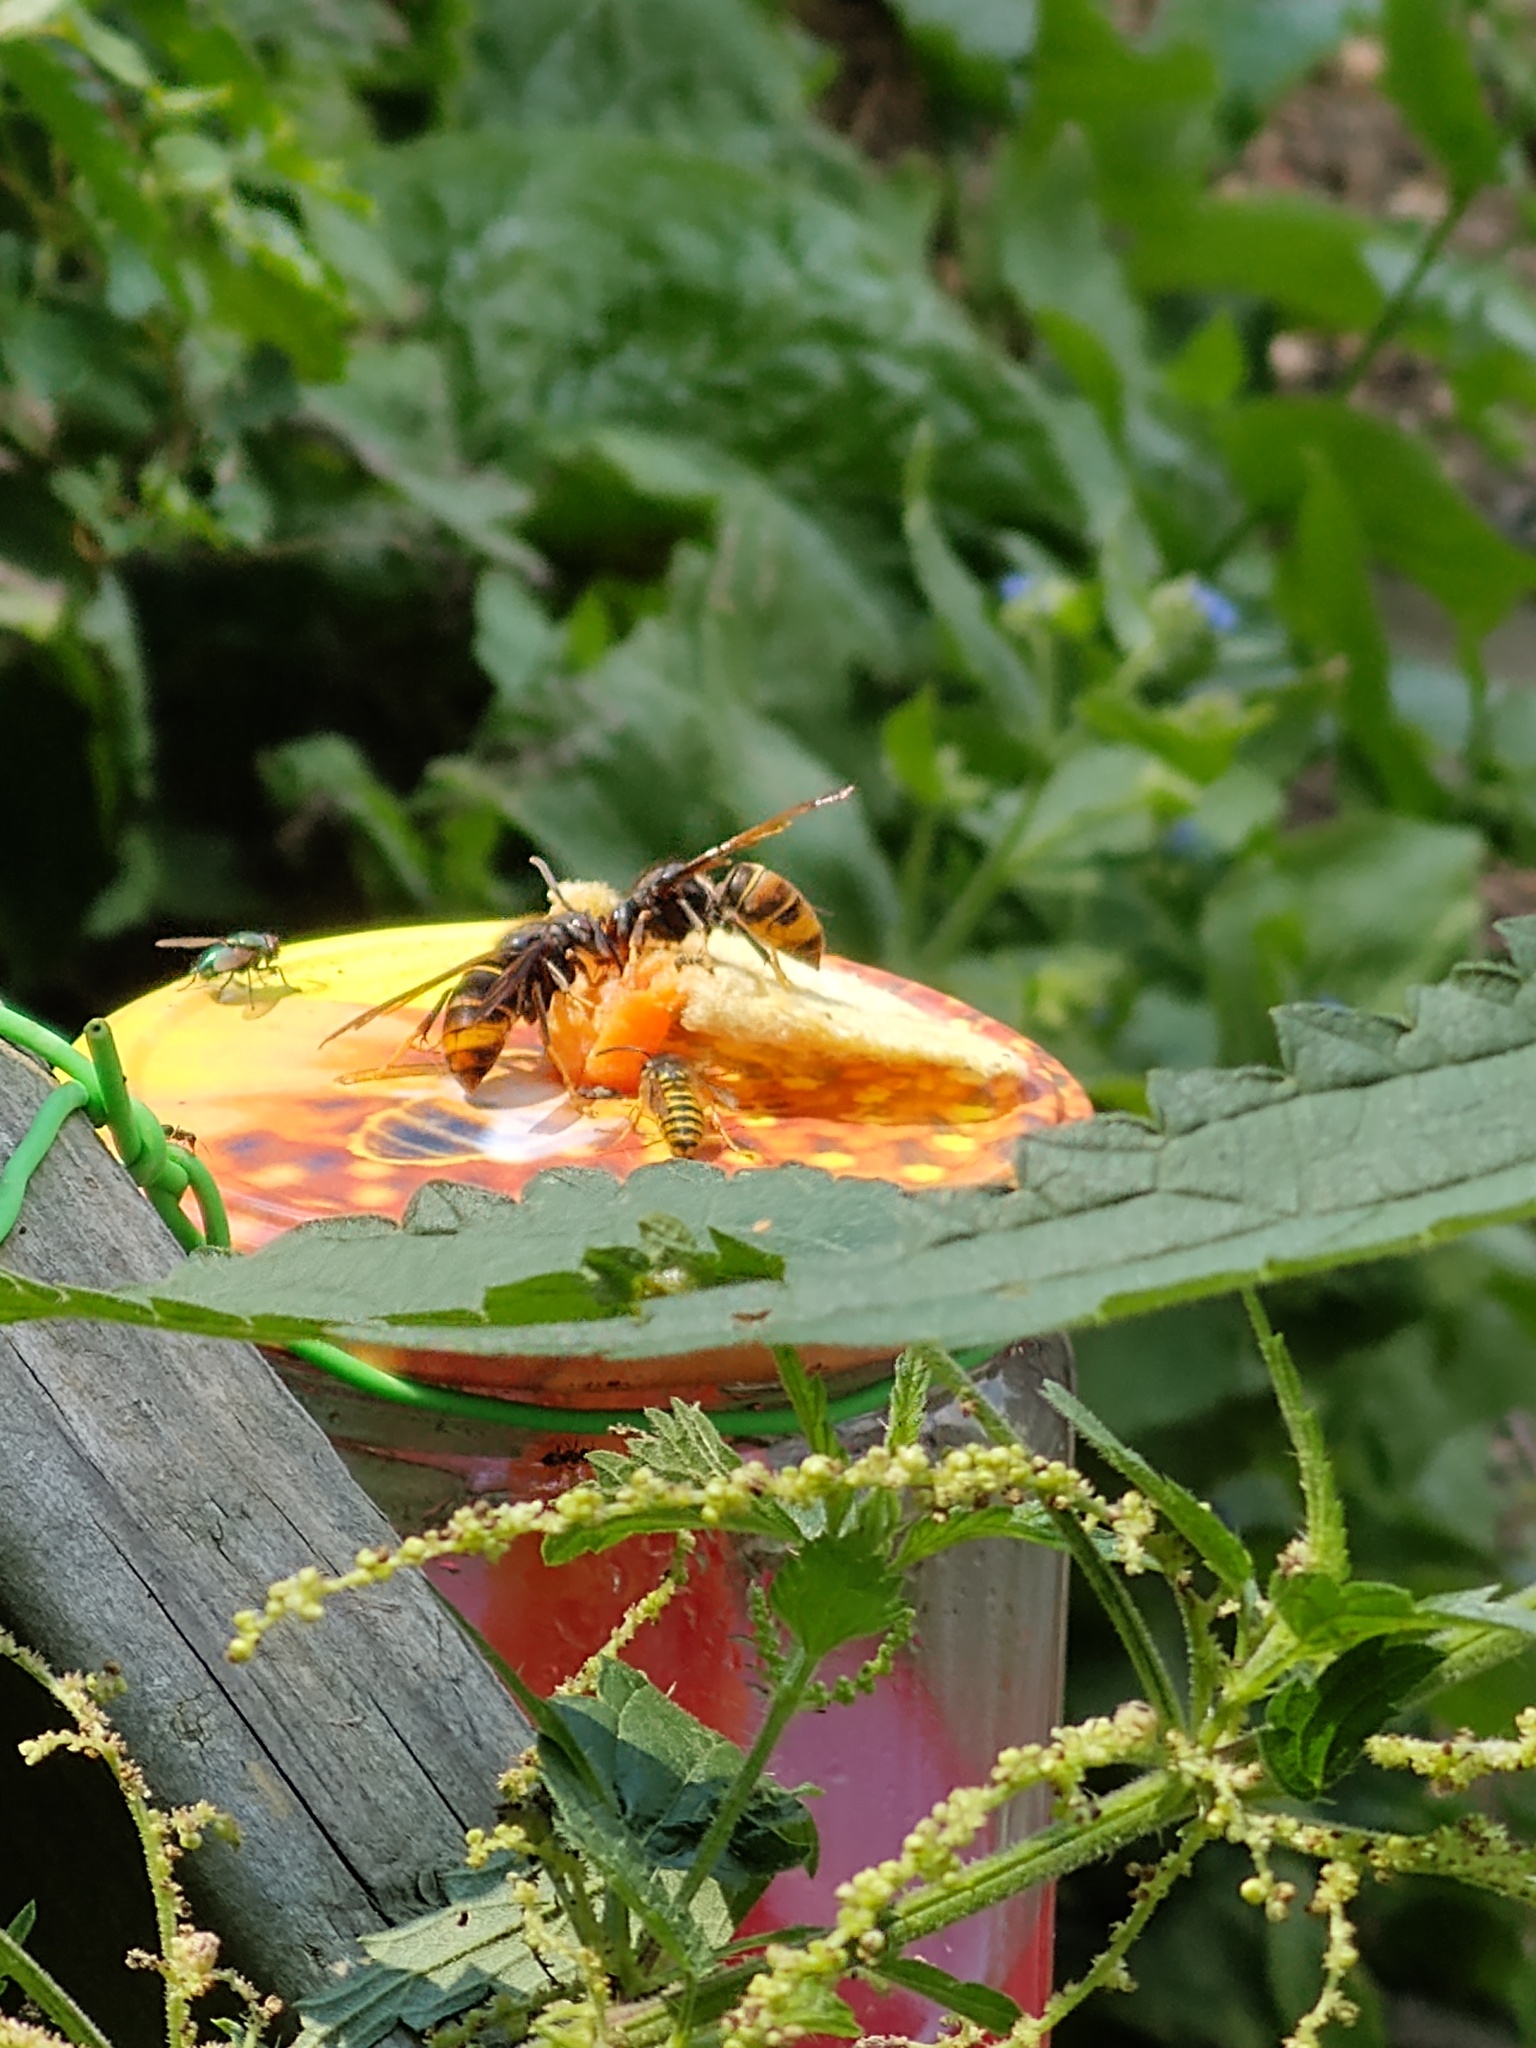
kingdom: Animalia
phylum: Arthropoda
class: Insecta
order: Hymenoptera
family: Vespidae
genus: Vespa
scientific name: Vespa velutina
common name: Asian hornet
